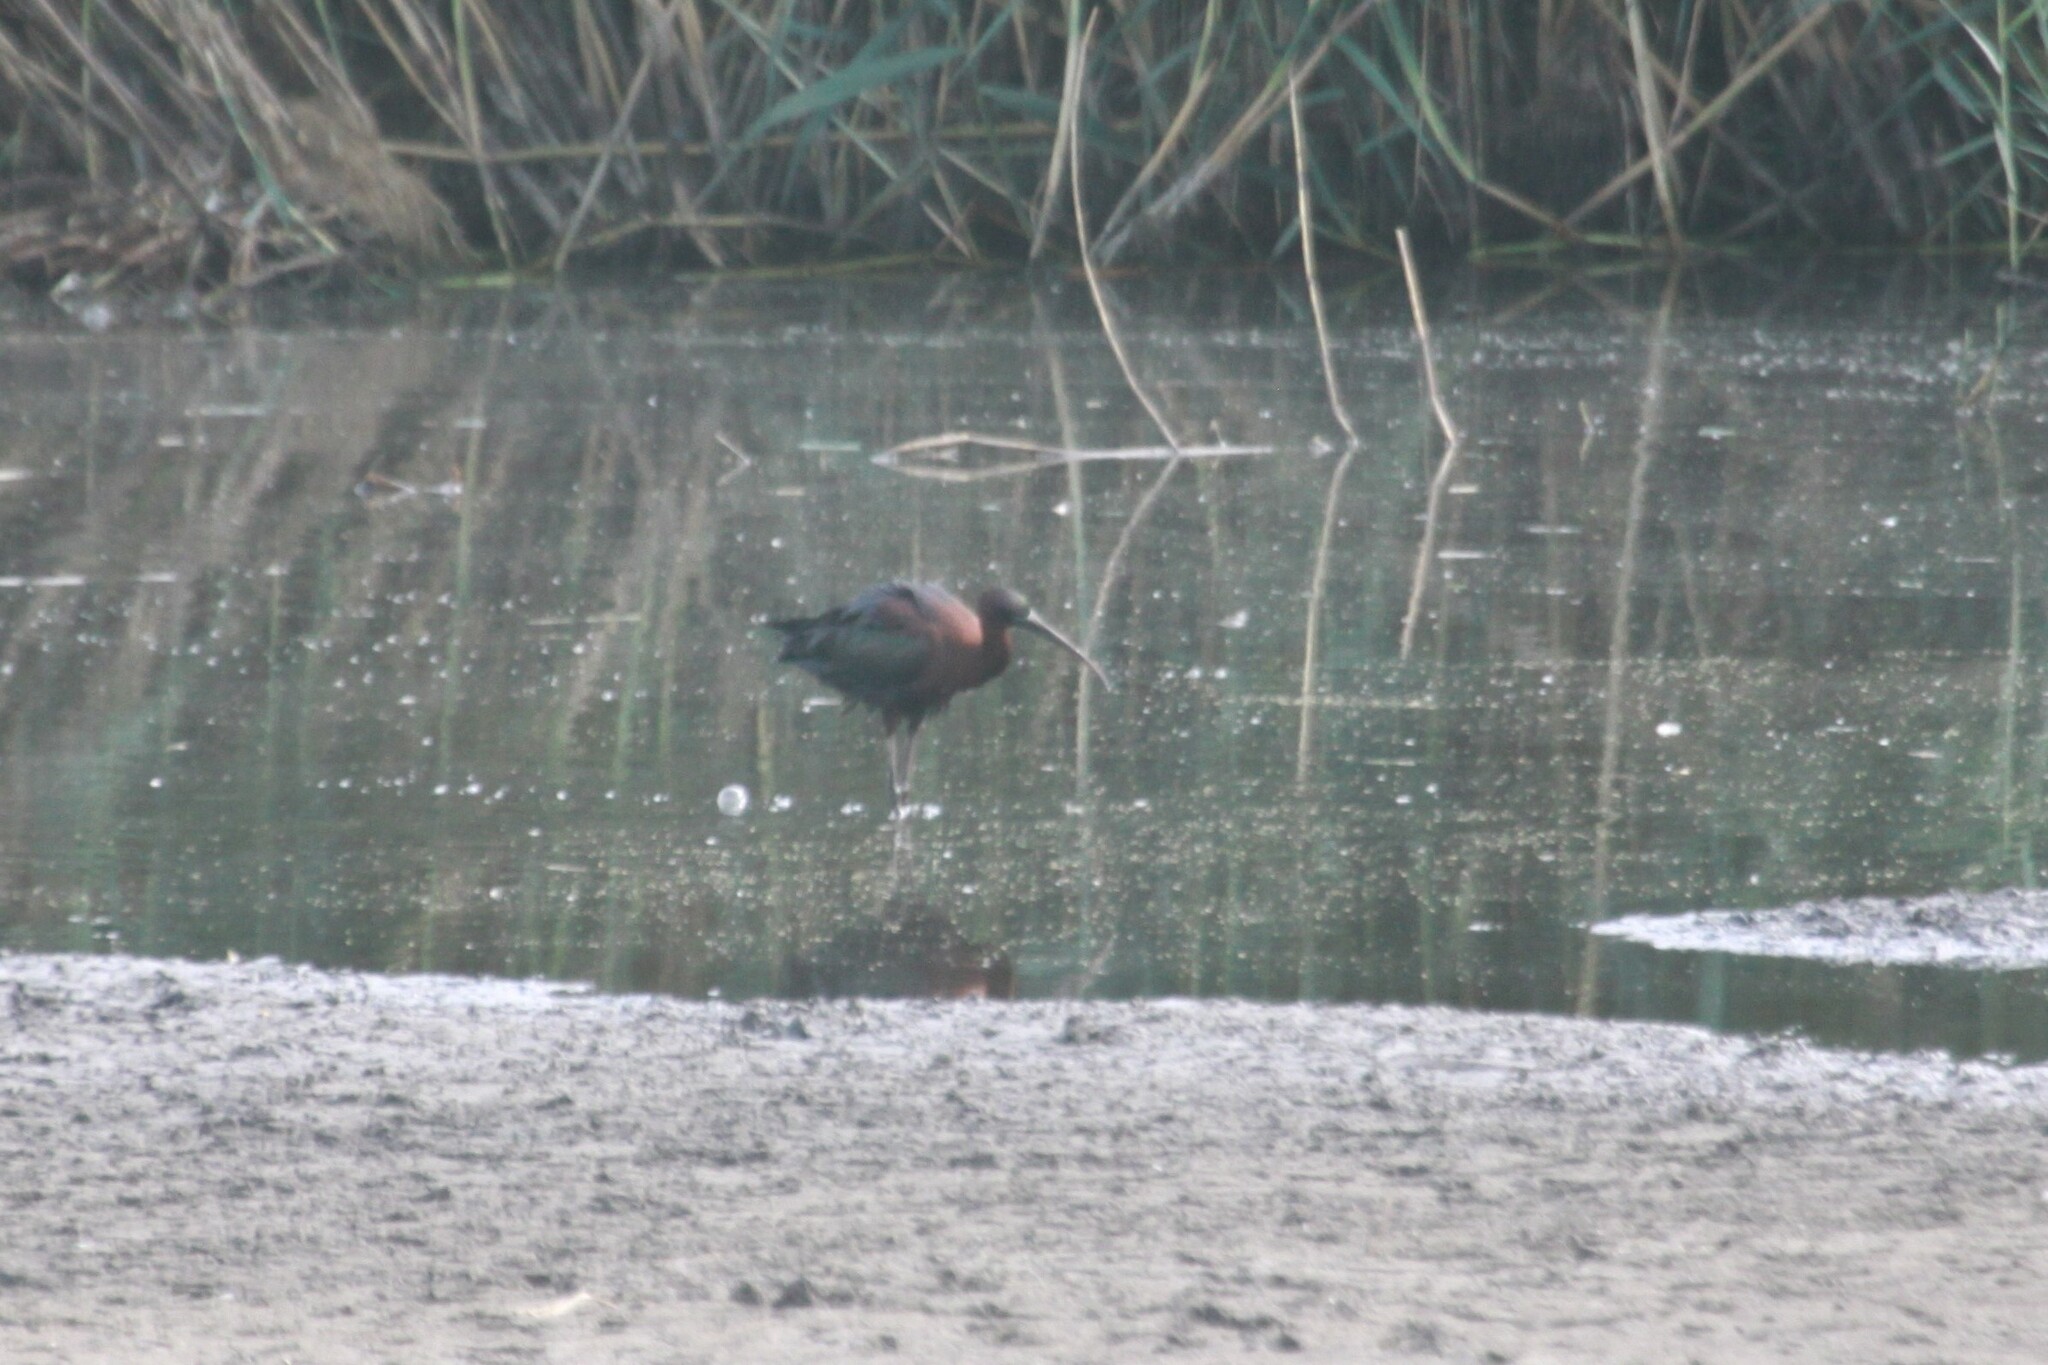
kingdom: Animalia
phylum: Chordata
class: Aves
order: Pelecaniformes
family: Threskiornithidae
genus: Plegadis
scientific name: Plegadis falcinellus
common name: Glossy ibis
